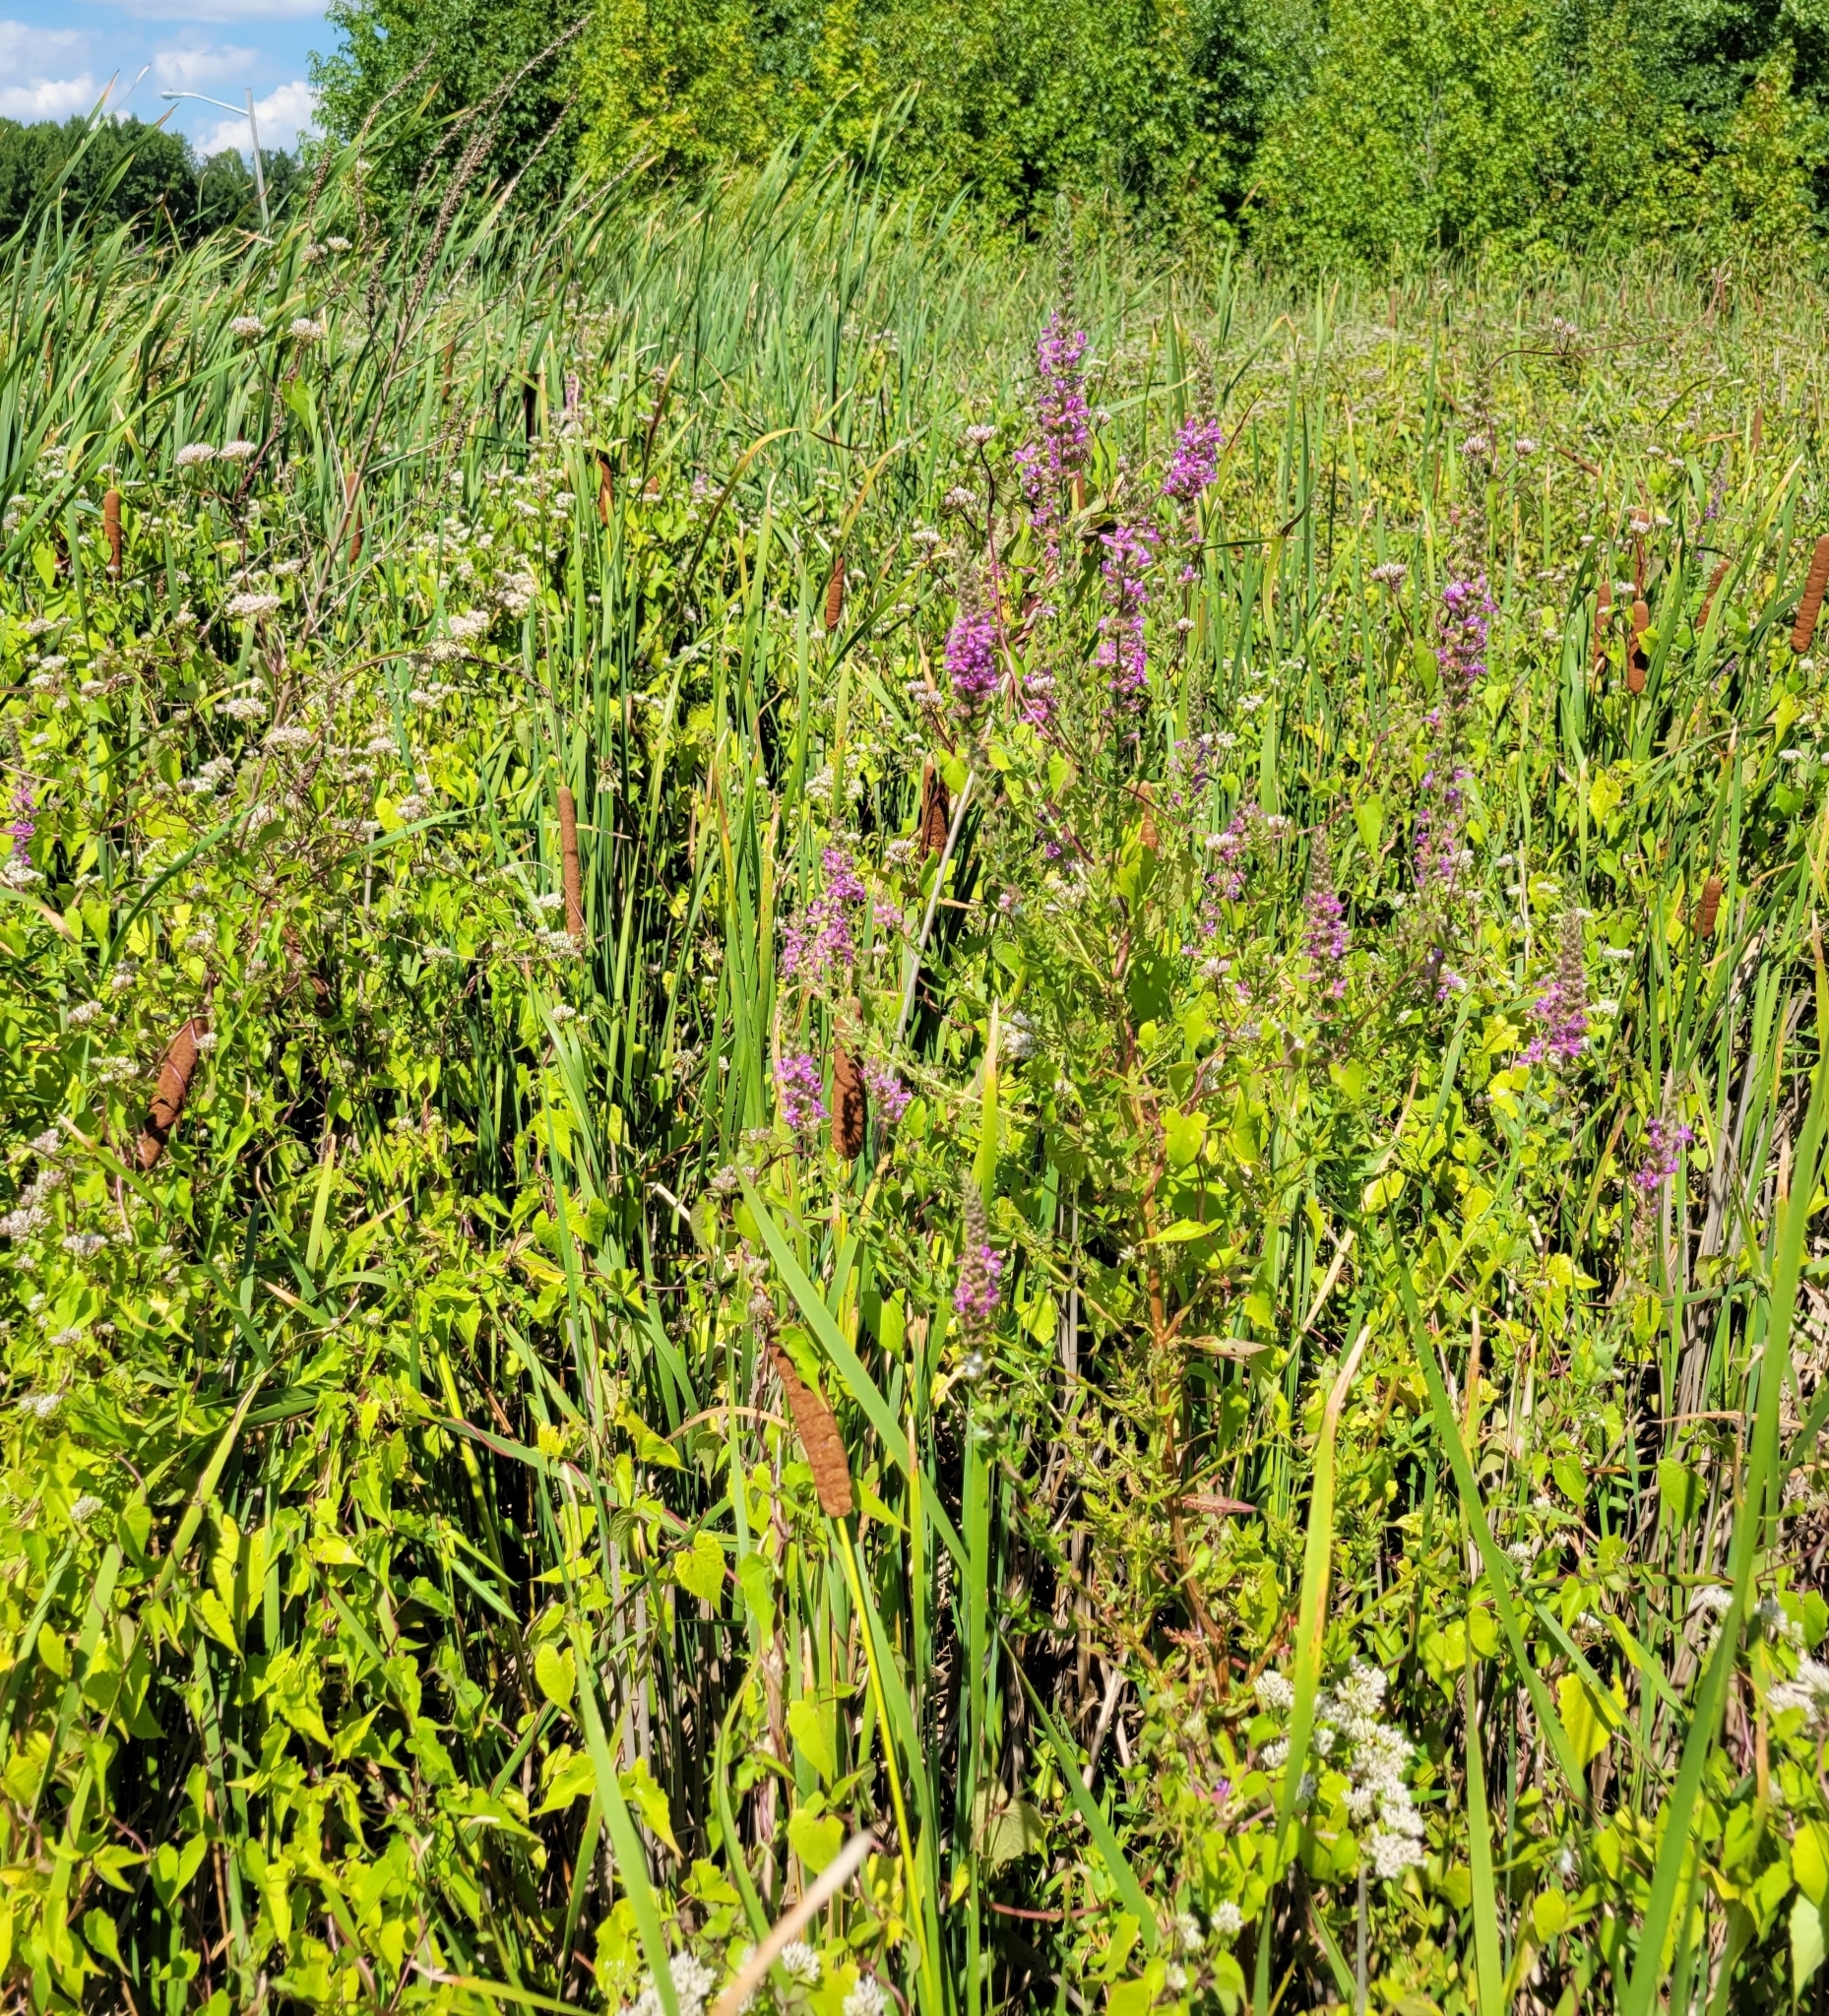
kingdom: Plantae
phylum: Tracheophyta
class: Magnoliopsida
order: Myrtales
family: Lythraceae
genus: Lythrum
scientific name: Lythrum salicaria
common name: Purple loosestrife
